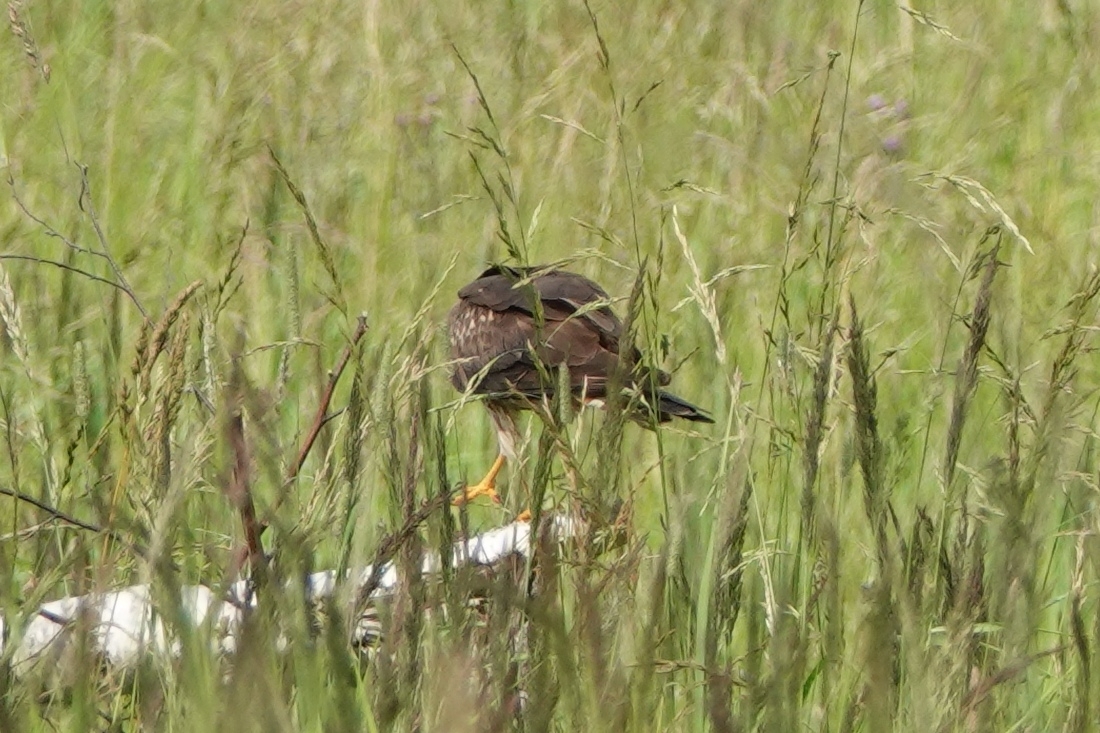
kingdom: Animalia
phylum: Chordata
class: Aves
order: Accipitriformes
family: Accipitridae
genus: Circus
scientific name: Circus pygargus
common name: Montagu's harrier
